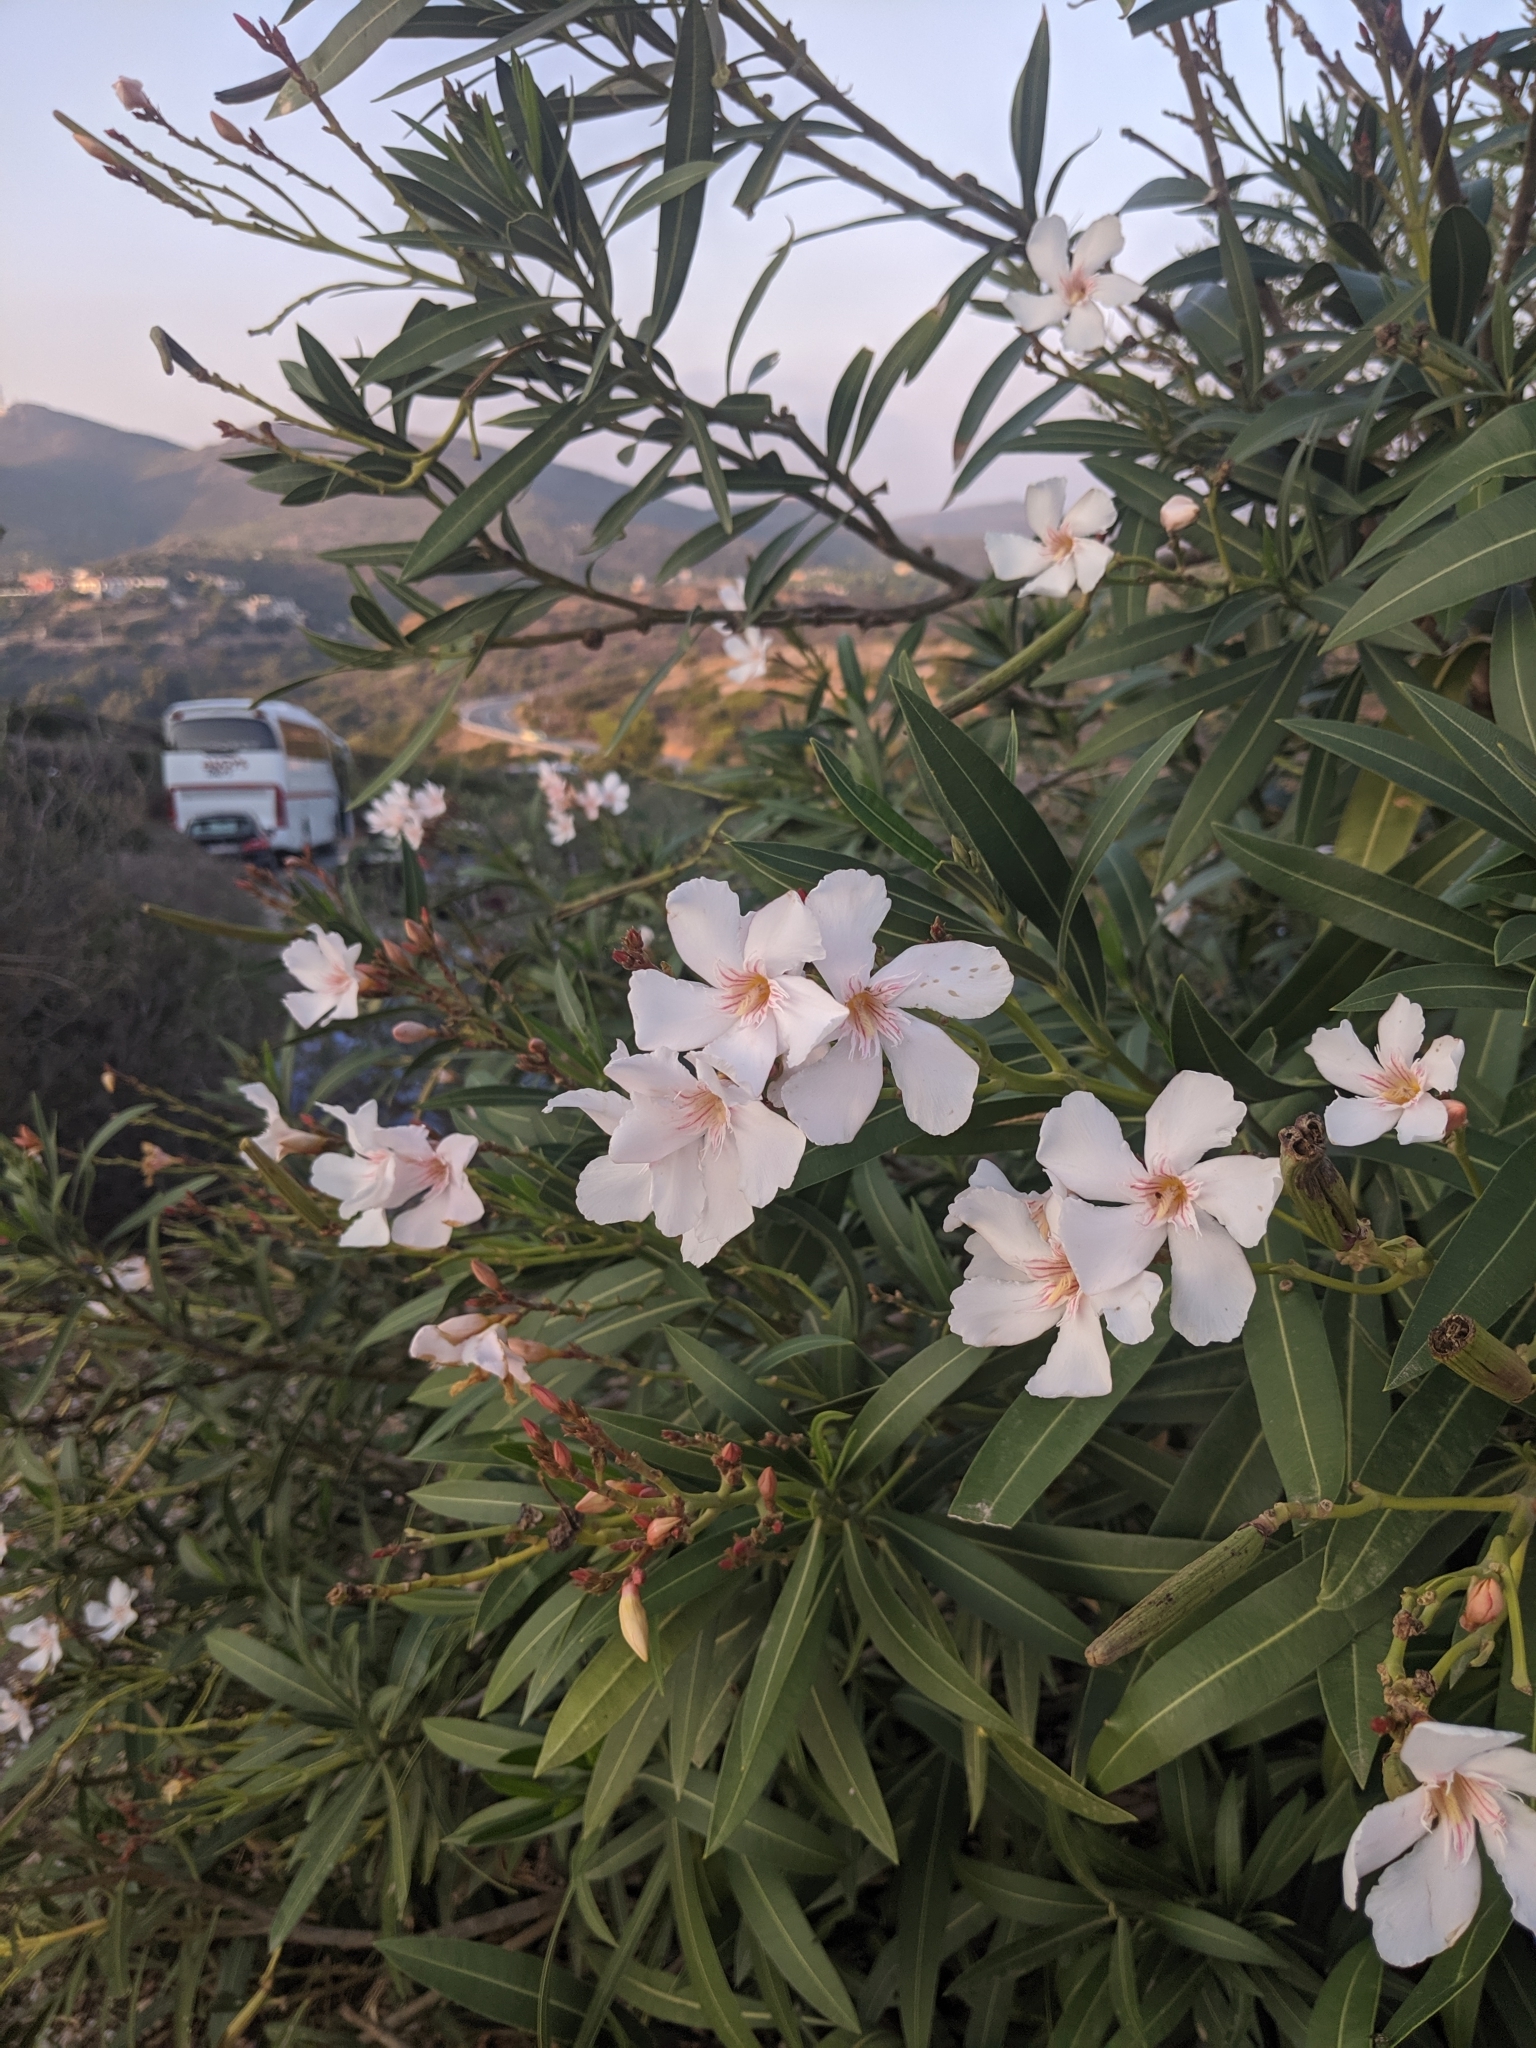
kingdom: Plantae
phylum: Tracheophyta
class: Magnoliopsida
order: Gentianales
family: Apocynaceae
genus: Nerium
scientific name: Nerium oleander
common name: Oleander
